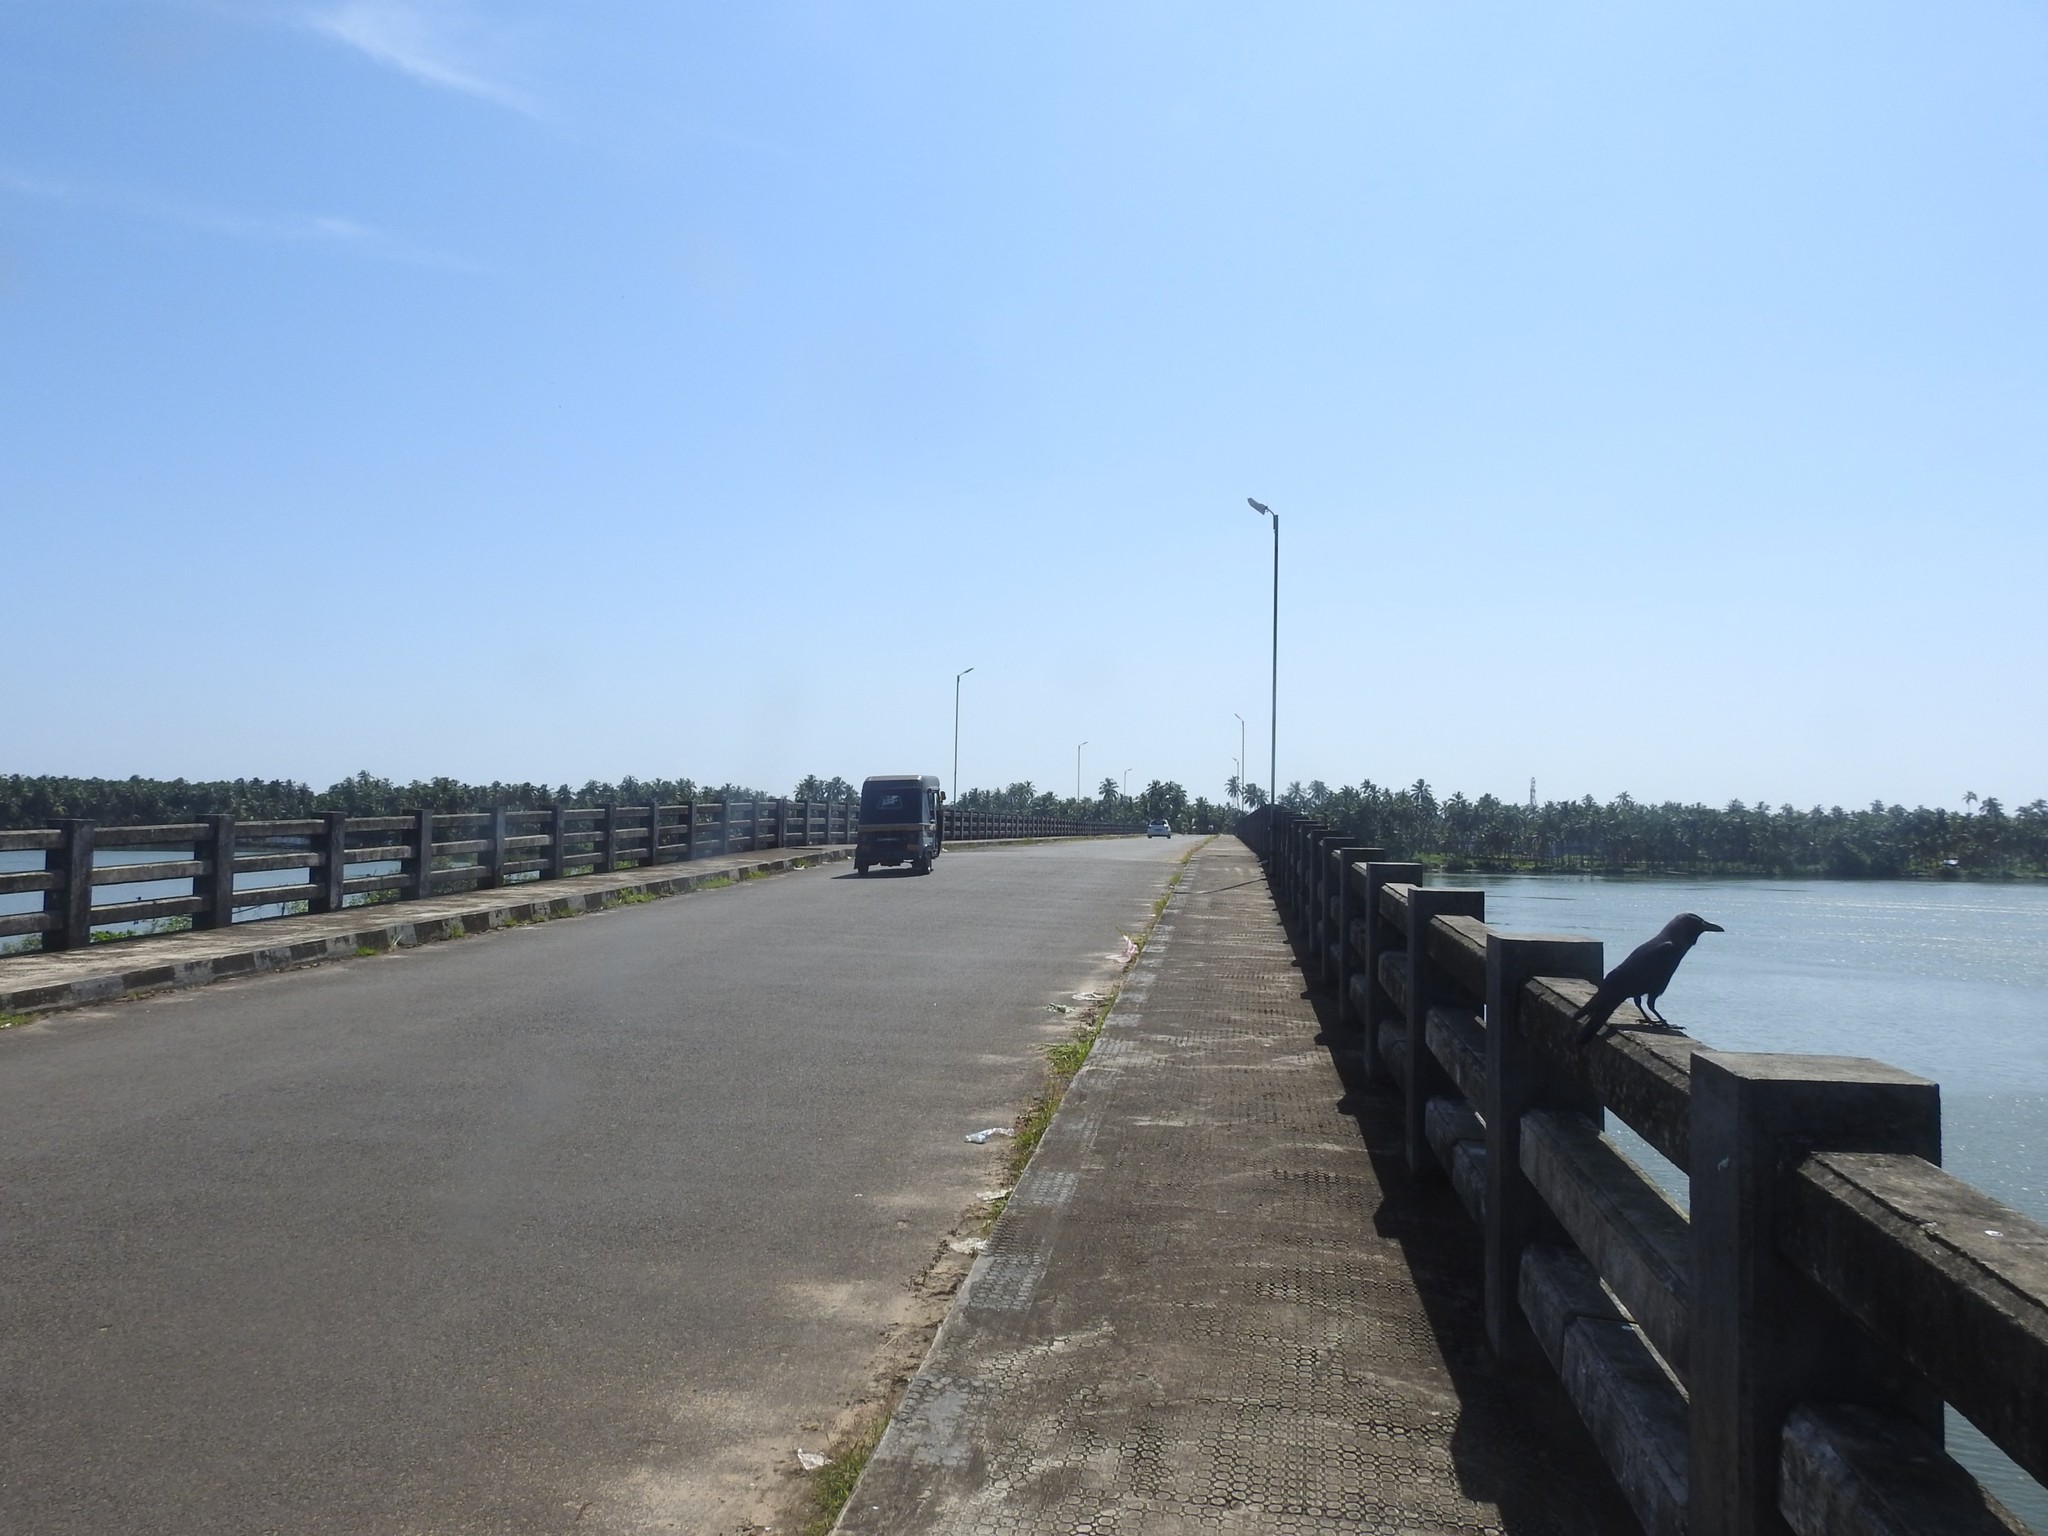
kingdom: Animalia
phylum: Chordata
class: Aves
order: Passeriformes
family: Corvidae
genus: Corvus
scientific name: Corvus splendens
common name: House crow
